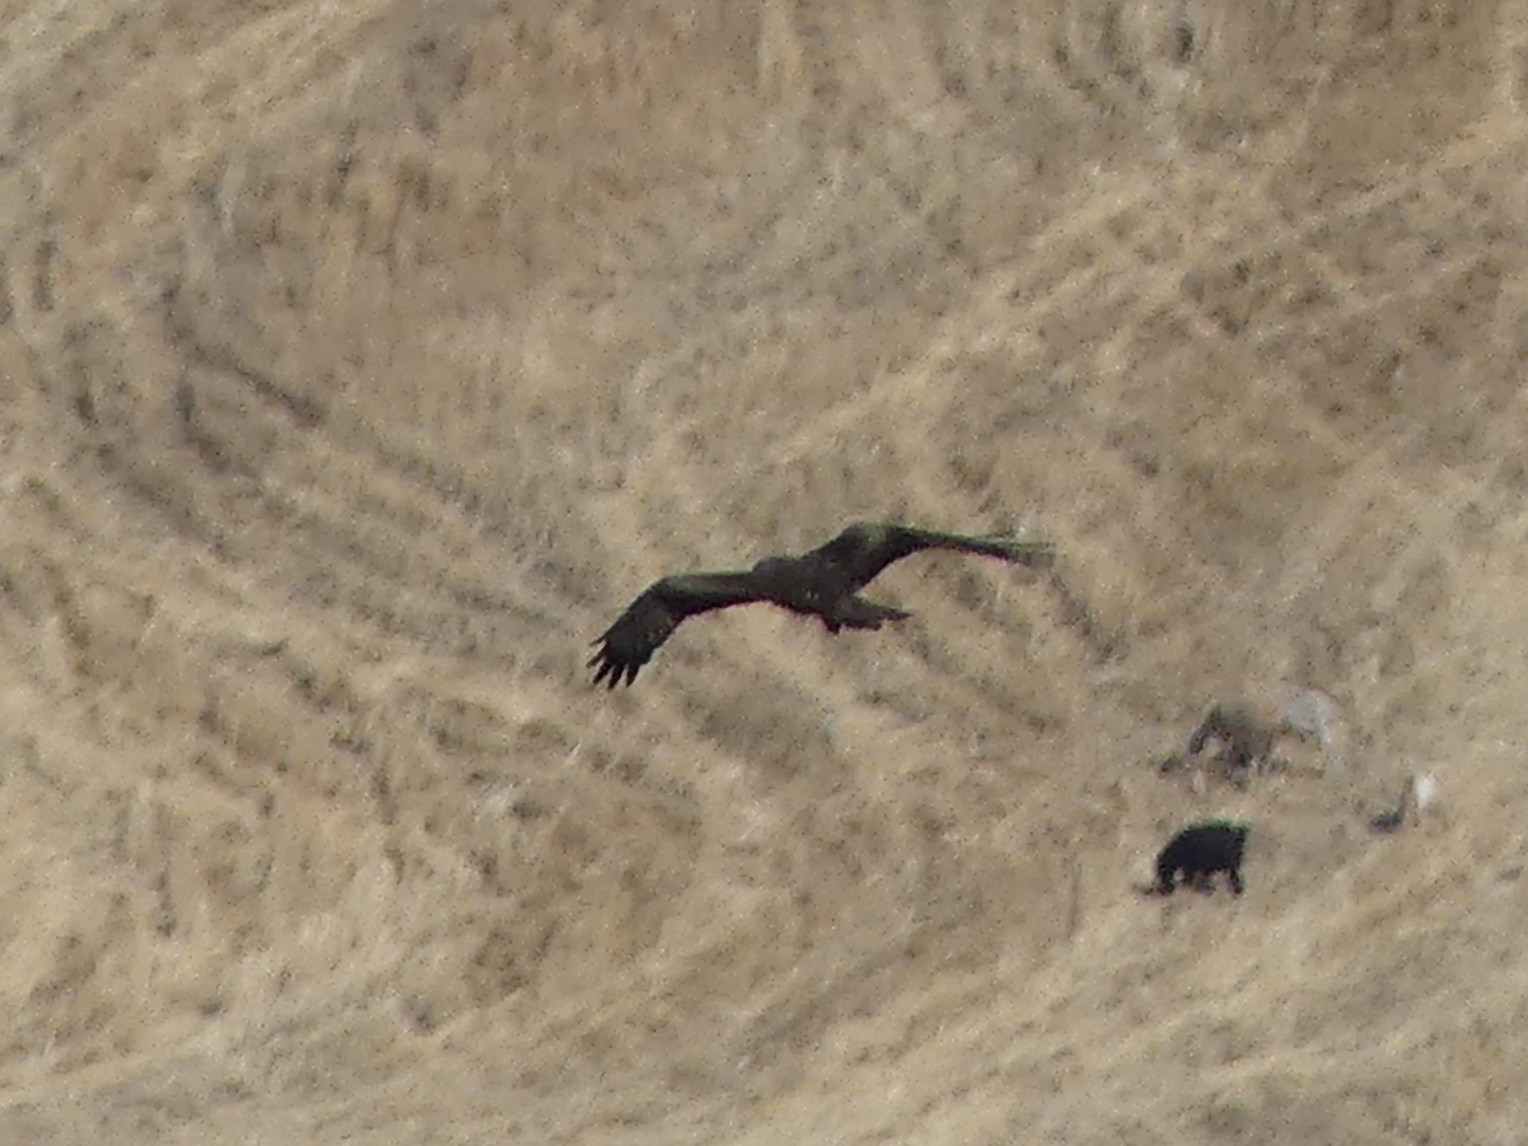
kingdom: Animalia
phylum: Chordata
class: Aves
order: Accipitriformes
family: Accipitridae
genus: Milvus
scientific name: Milvus migrans
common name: Black kite
